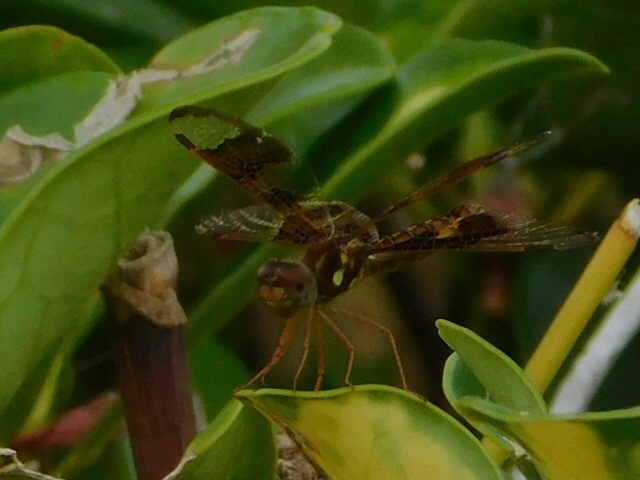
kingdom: Animalia
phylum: Arthropoda
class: Insecta
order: Odonata
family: Libellulidae
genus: Perithemis
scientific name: Perithemis tenera
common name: Eastern amberwing
